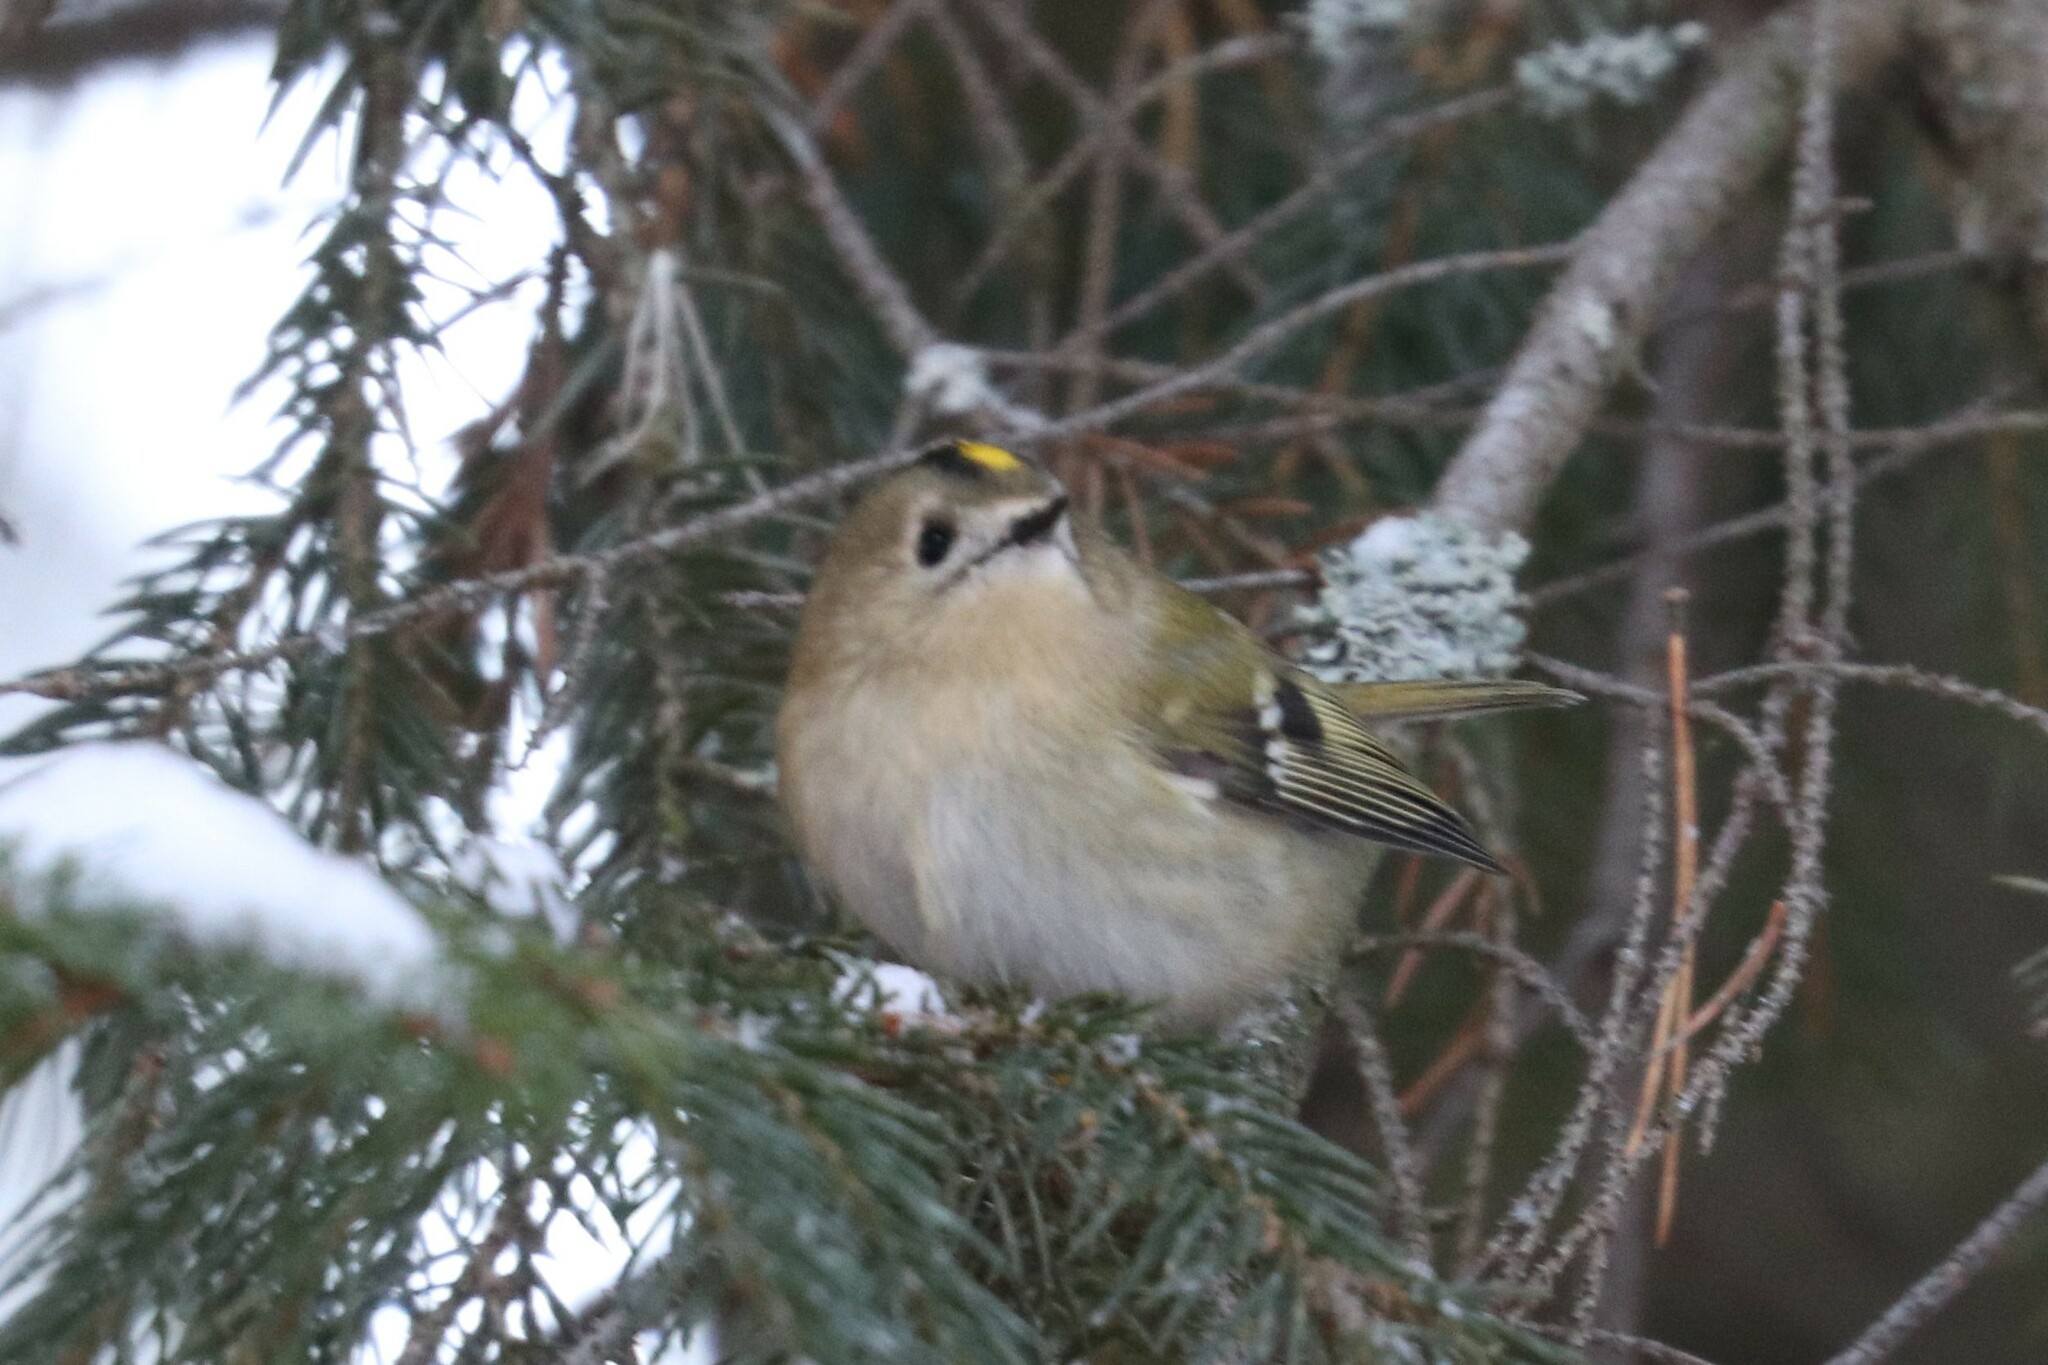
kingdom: Animalia
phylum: Chordata
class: Aves
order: Passeriformes
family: Regulidae
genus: Regulus
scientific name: Regulus regulus
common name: Goldcrest
